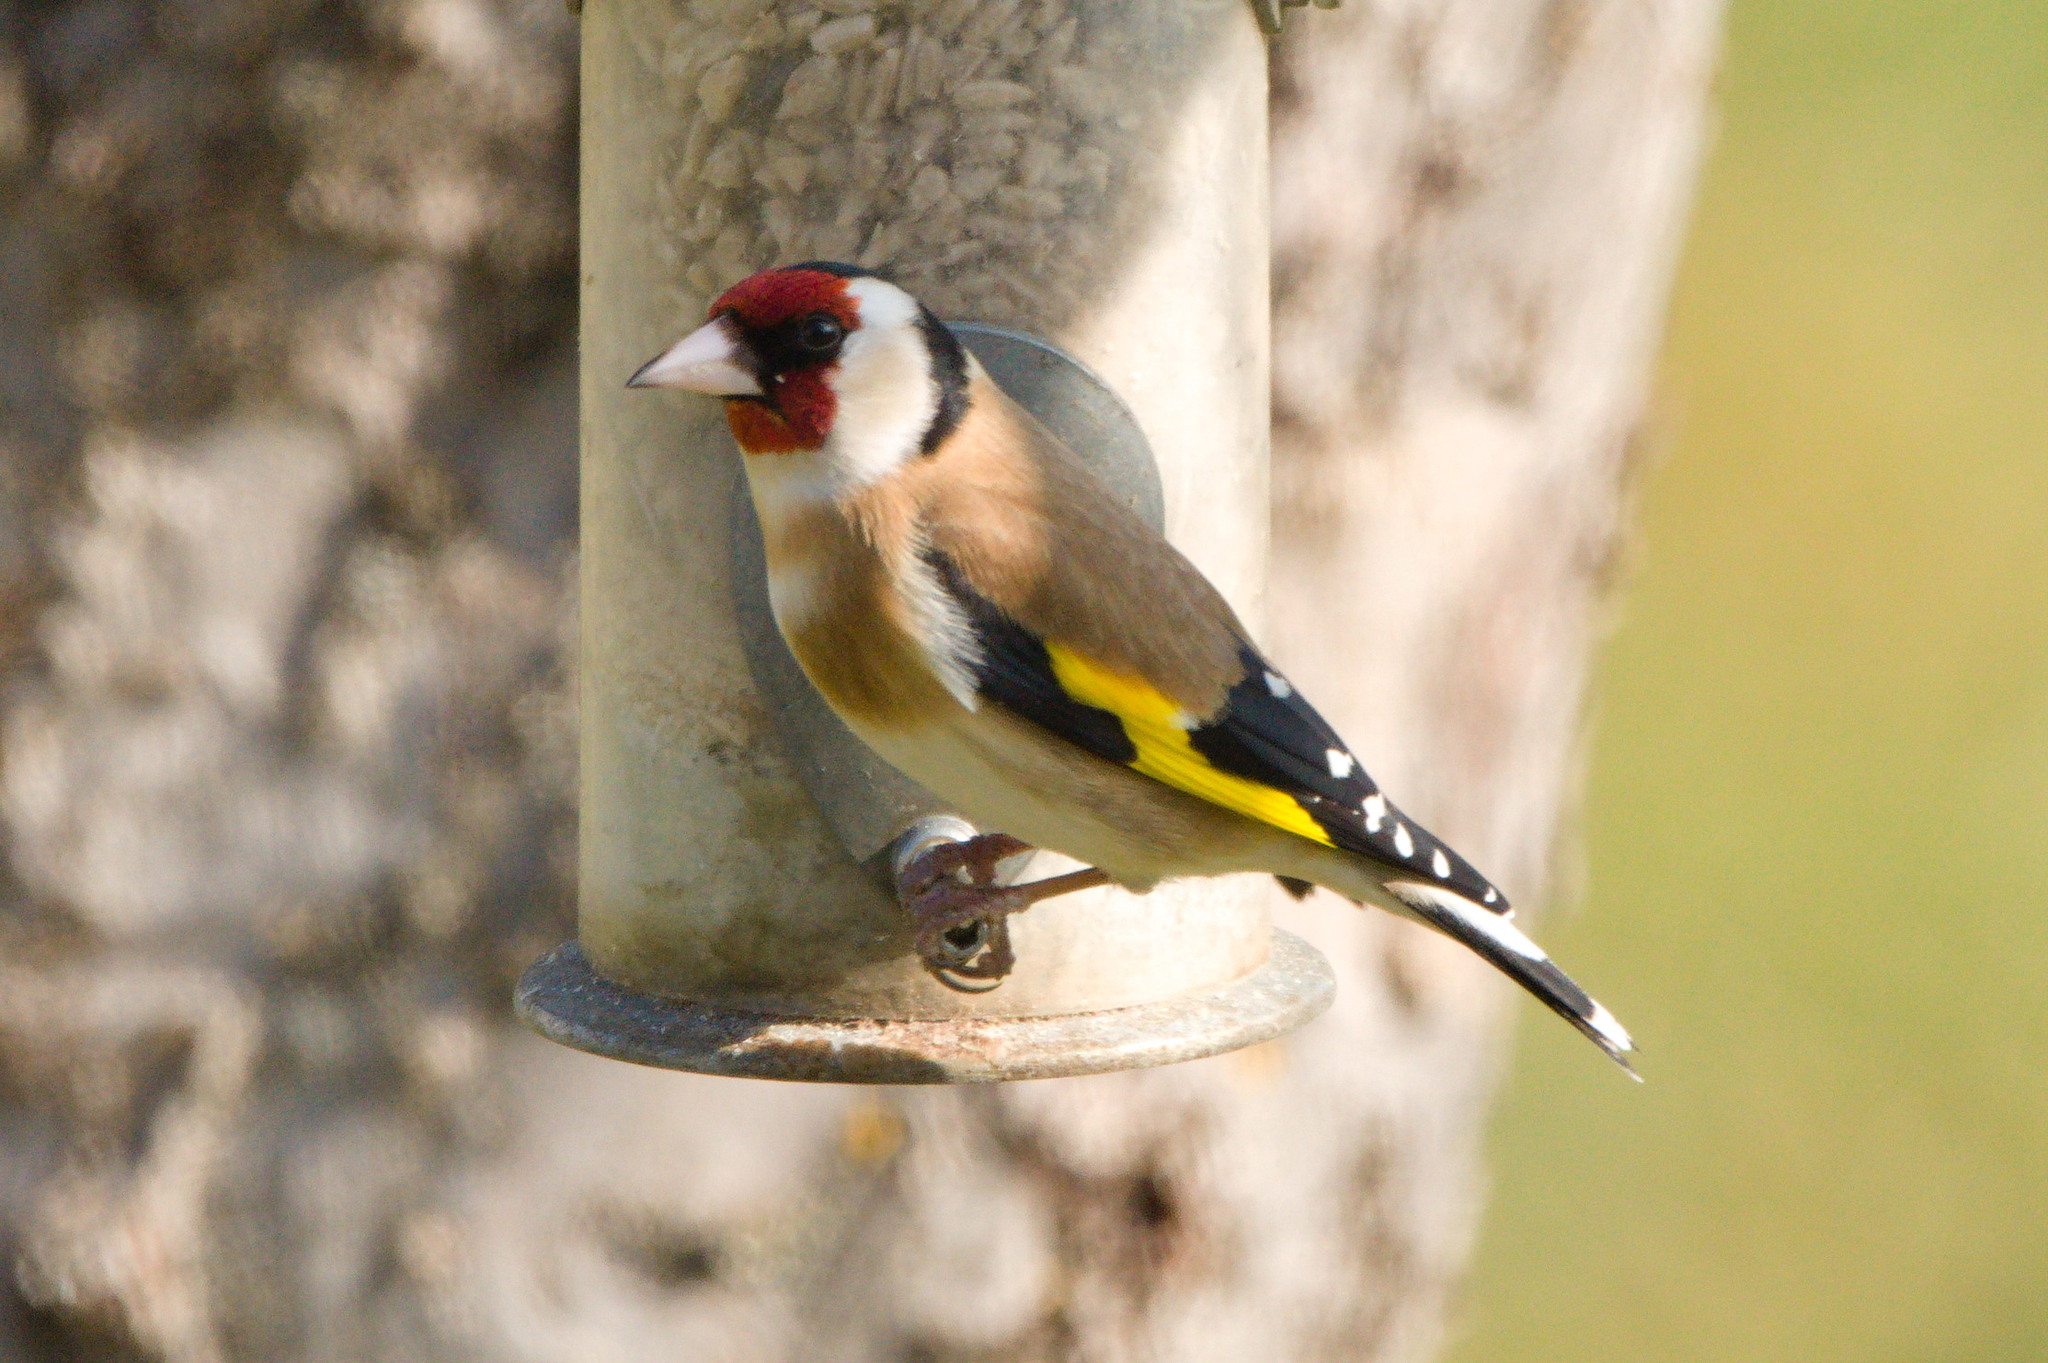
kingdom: Animalia
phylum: Chordata
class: Aves
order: Passeriformes
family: Fringillidae
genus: Carduelis
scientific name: Carduelis carduelis
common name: European goldfinch
